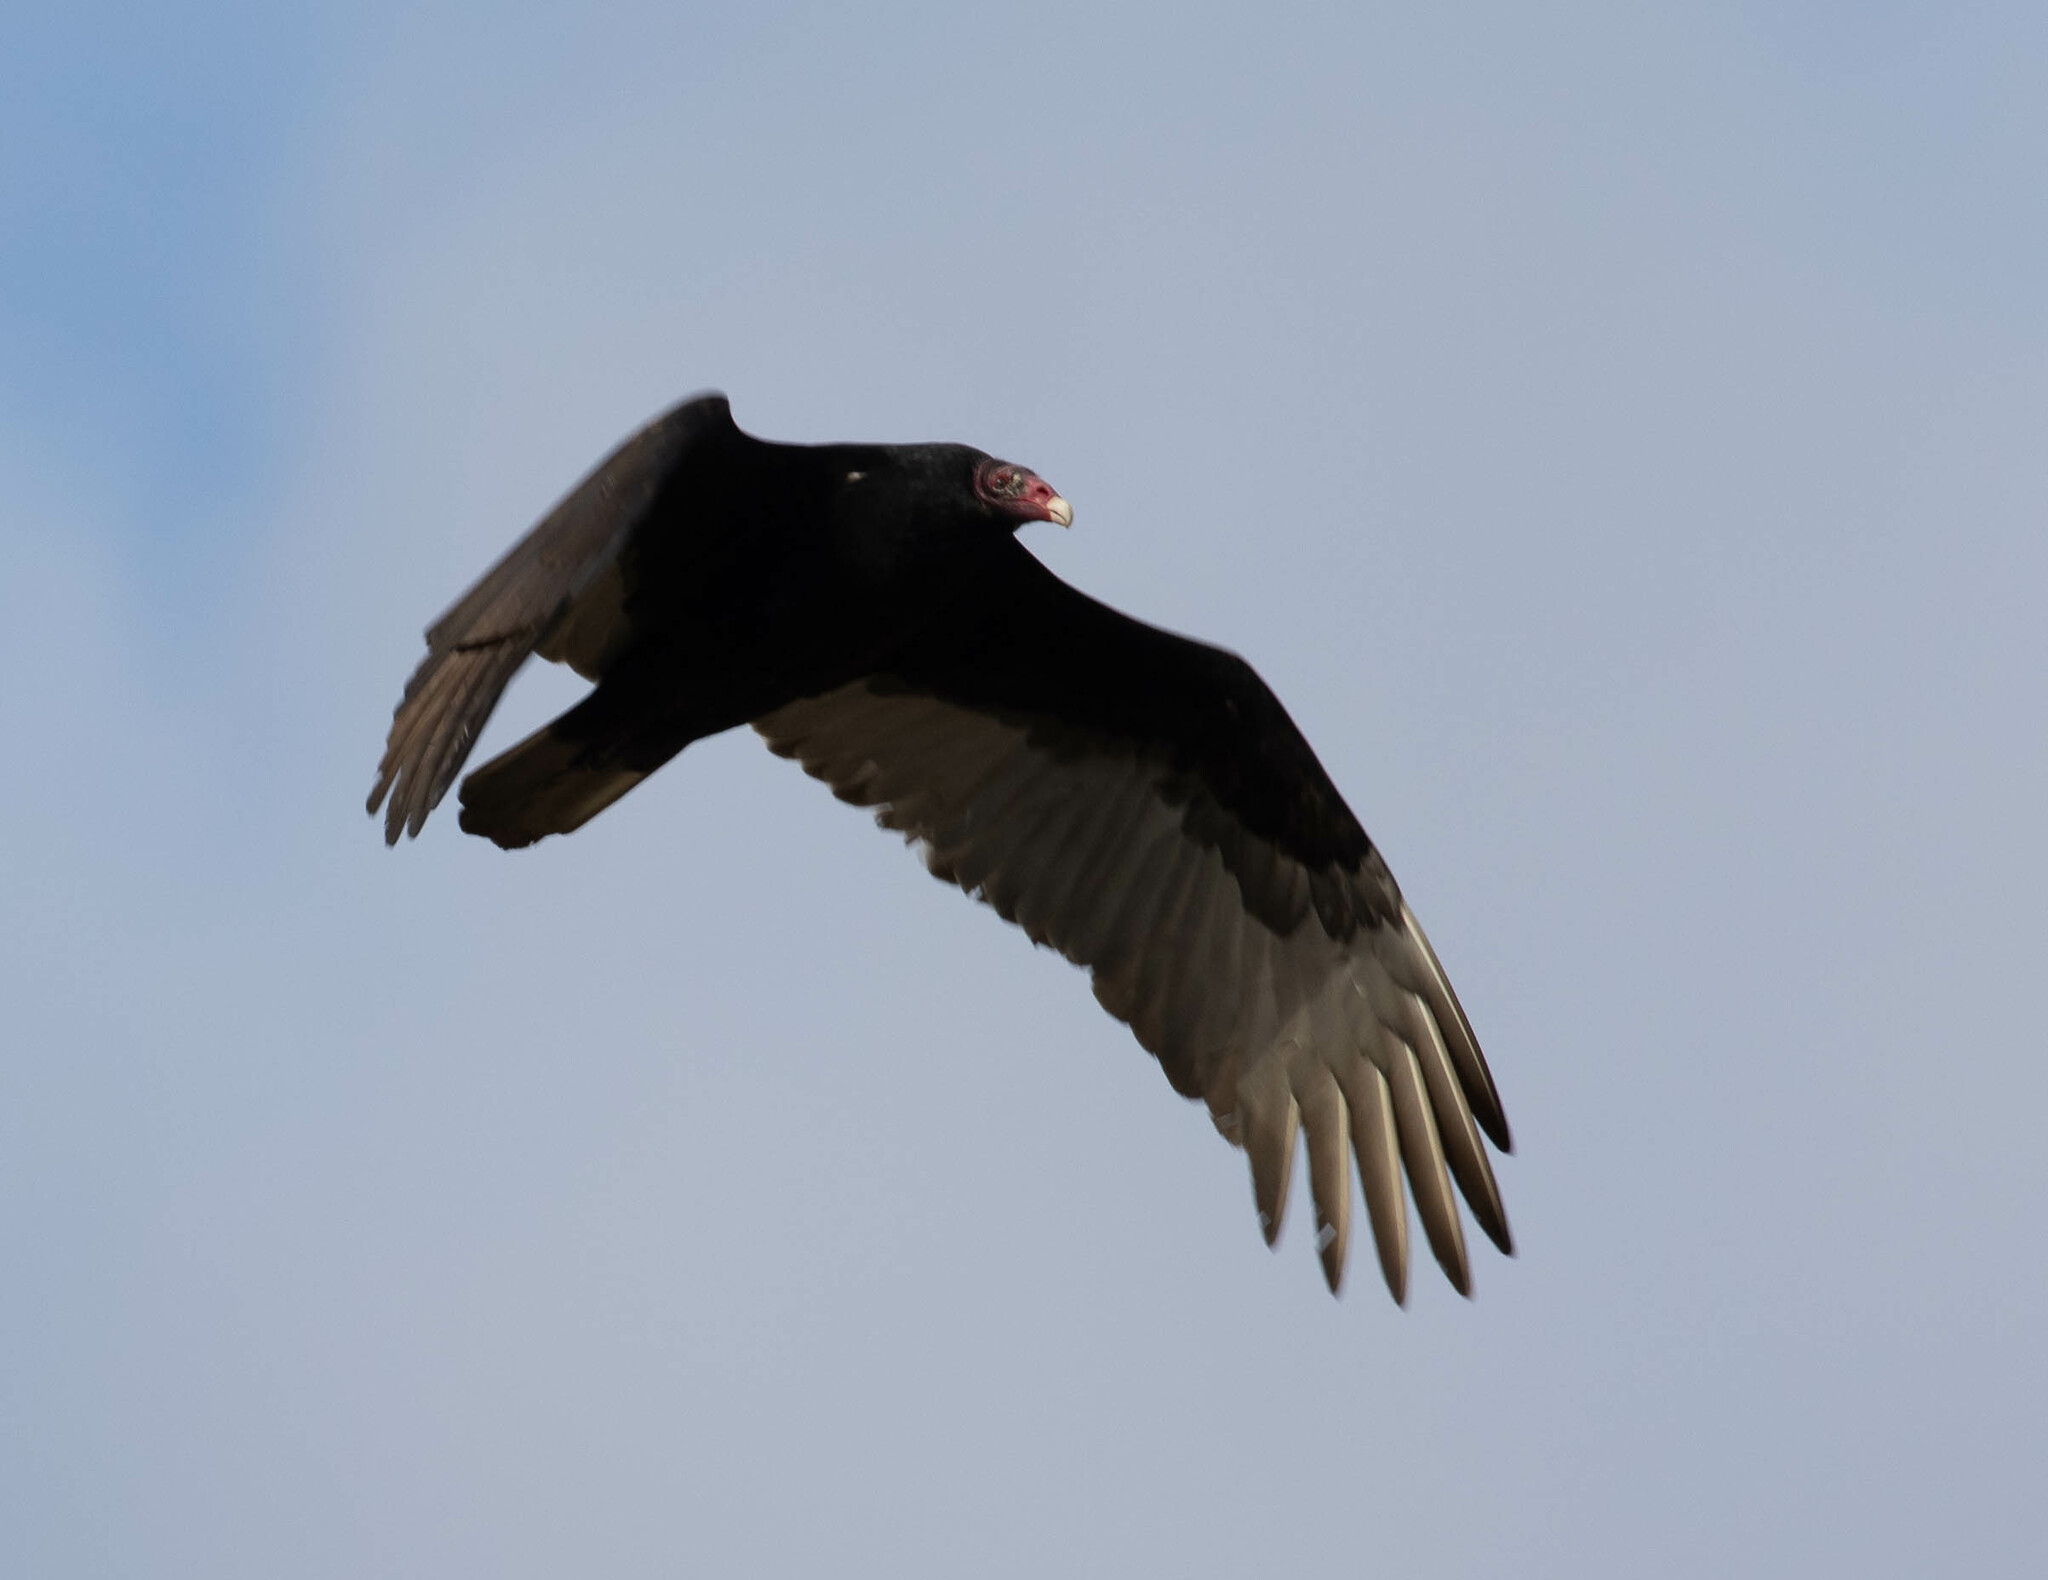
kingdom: Animalia
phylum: Chordata
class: Aves
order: Accipitriformes
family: Cathartidae
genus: Cathartes
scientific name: Cathartes aura
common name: Turkey vulture
